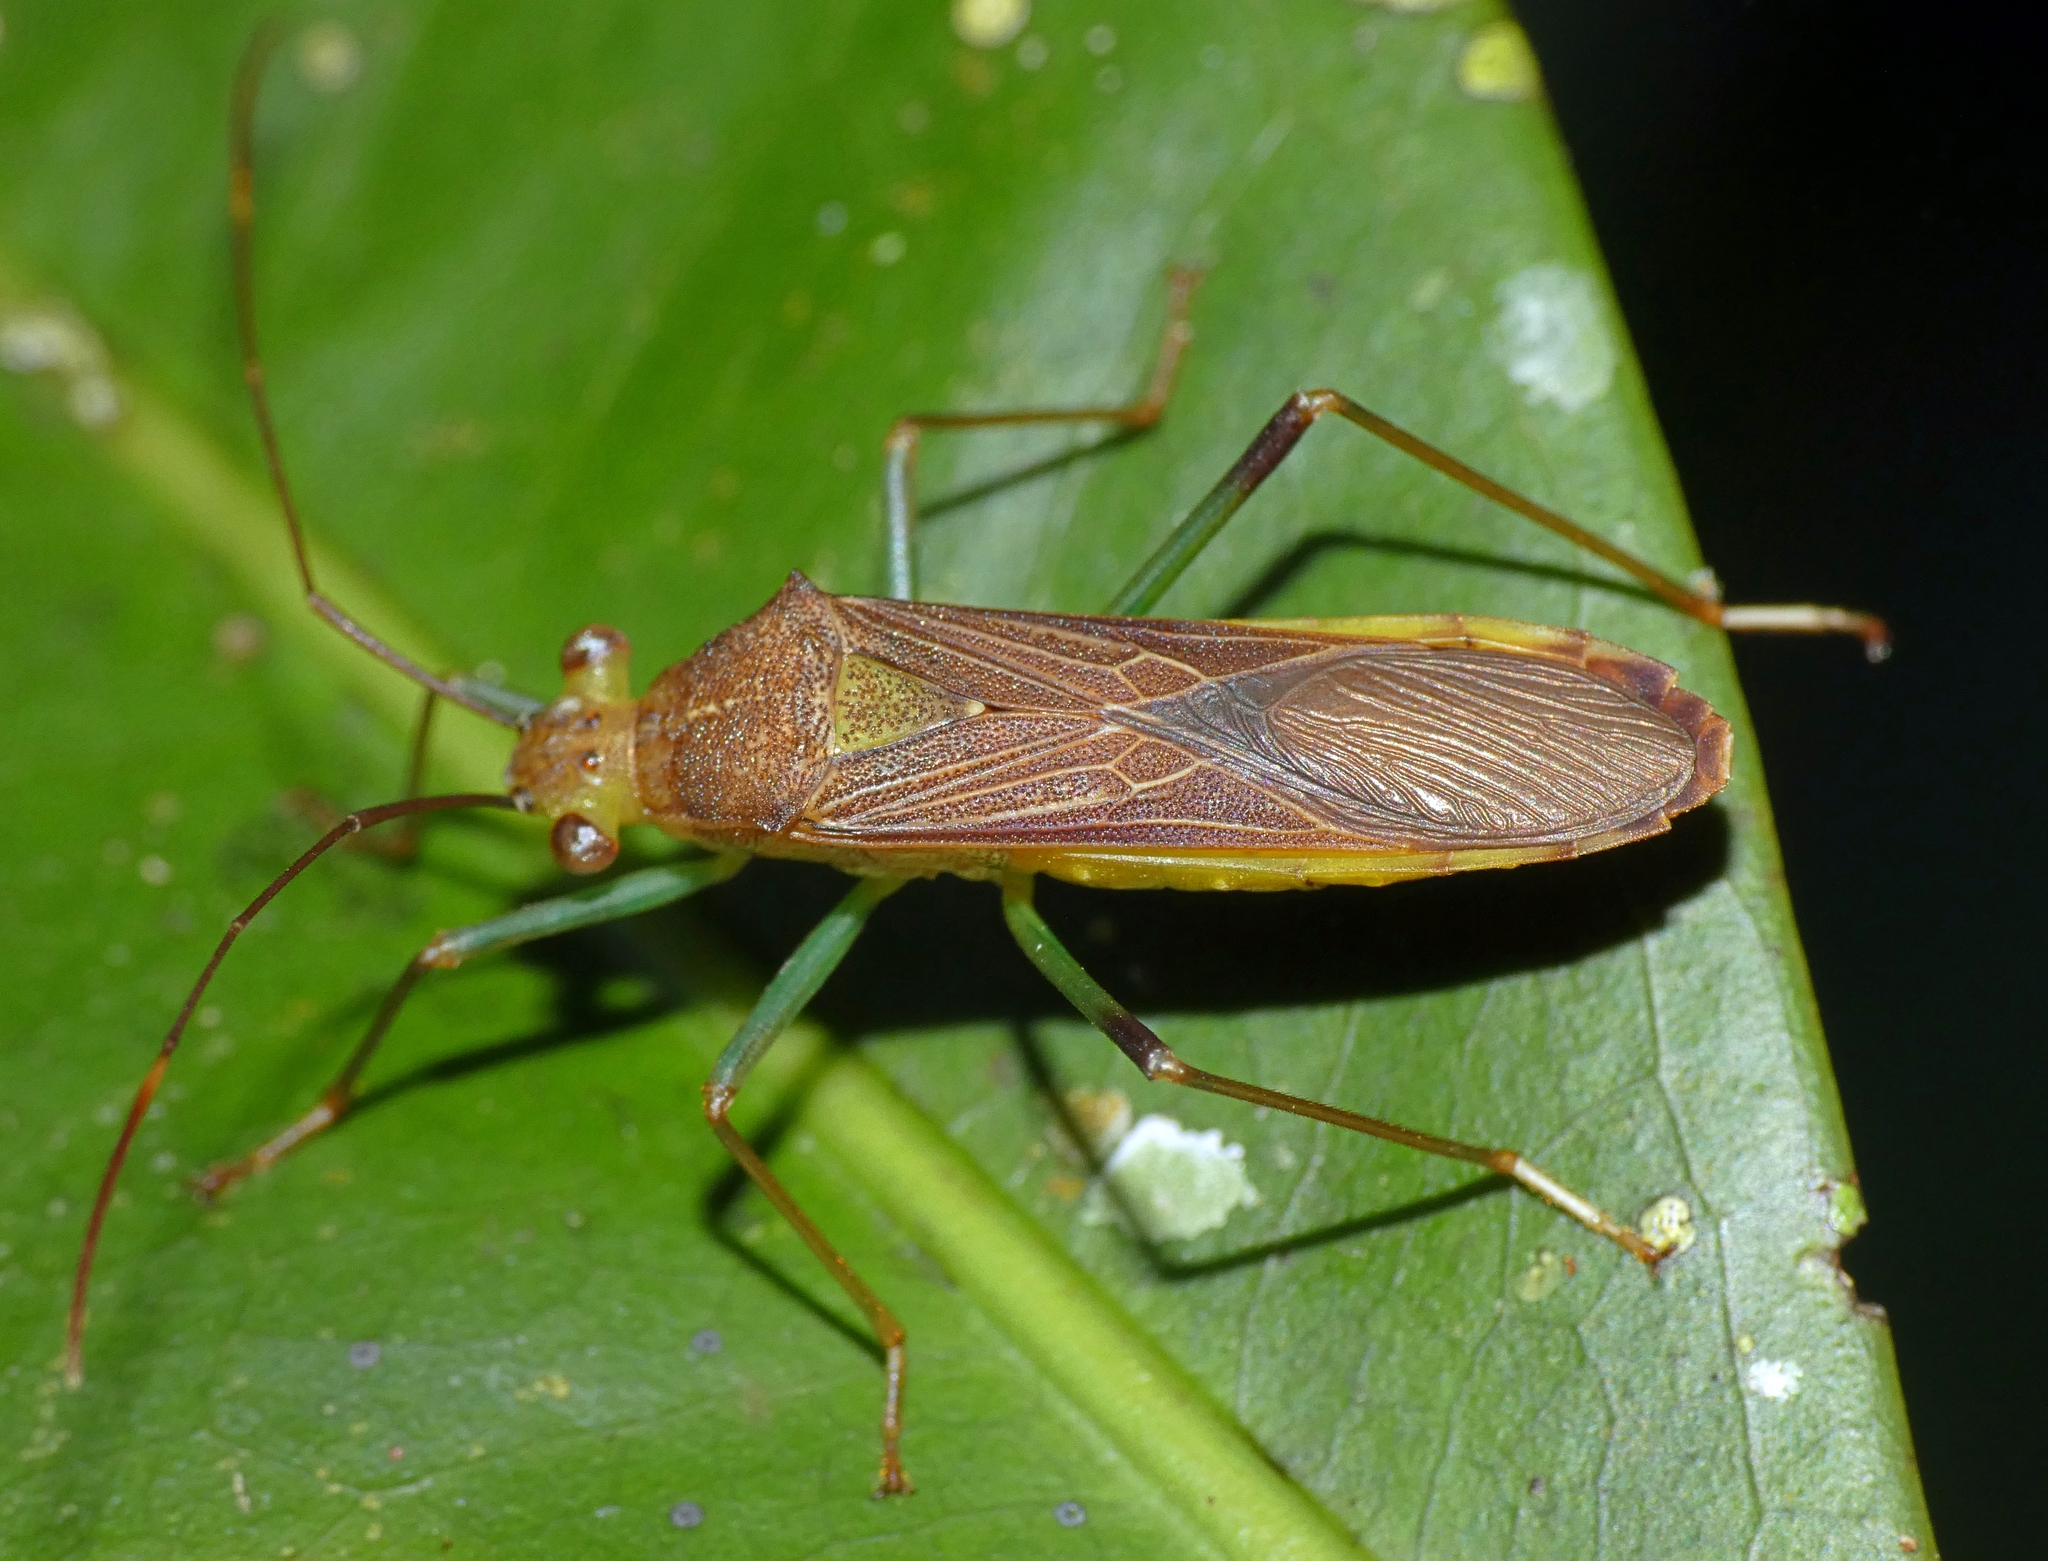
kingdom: Animalia
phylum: Arthropoda
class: Insecta
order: Hemiptera
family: Coreidae
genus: Piramurana
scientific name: Piramurana cyclops
